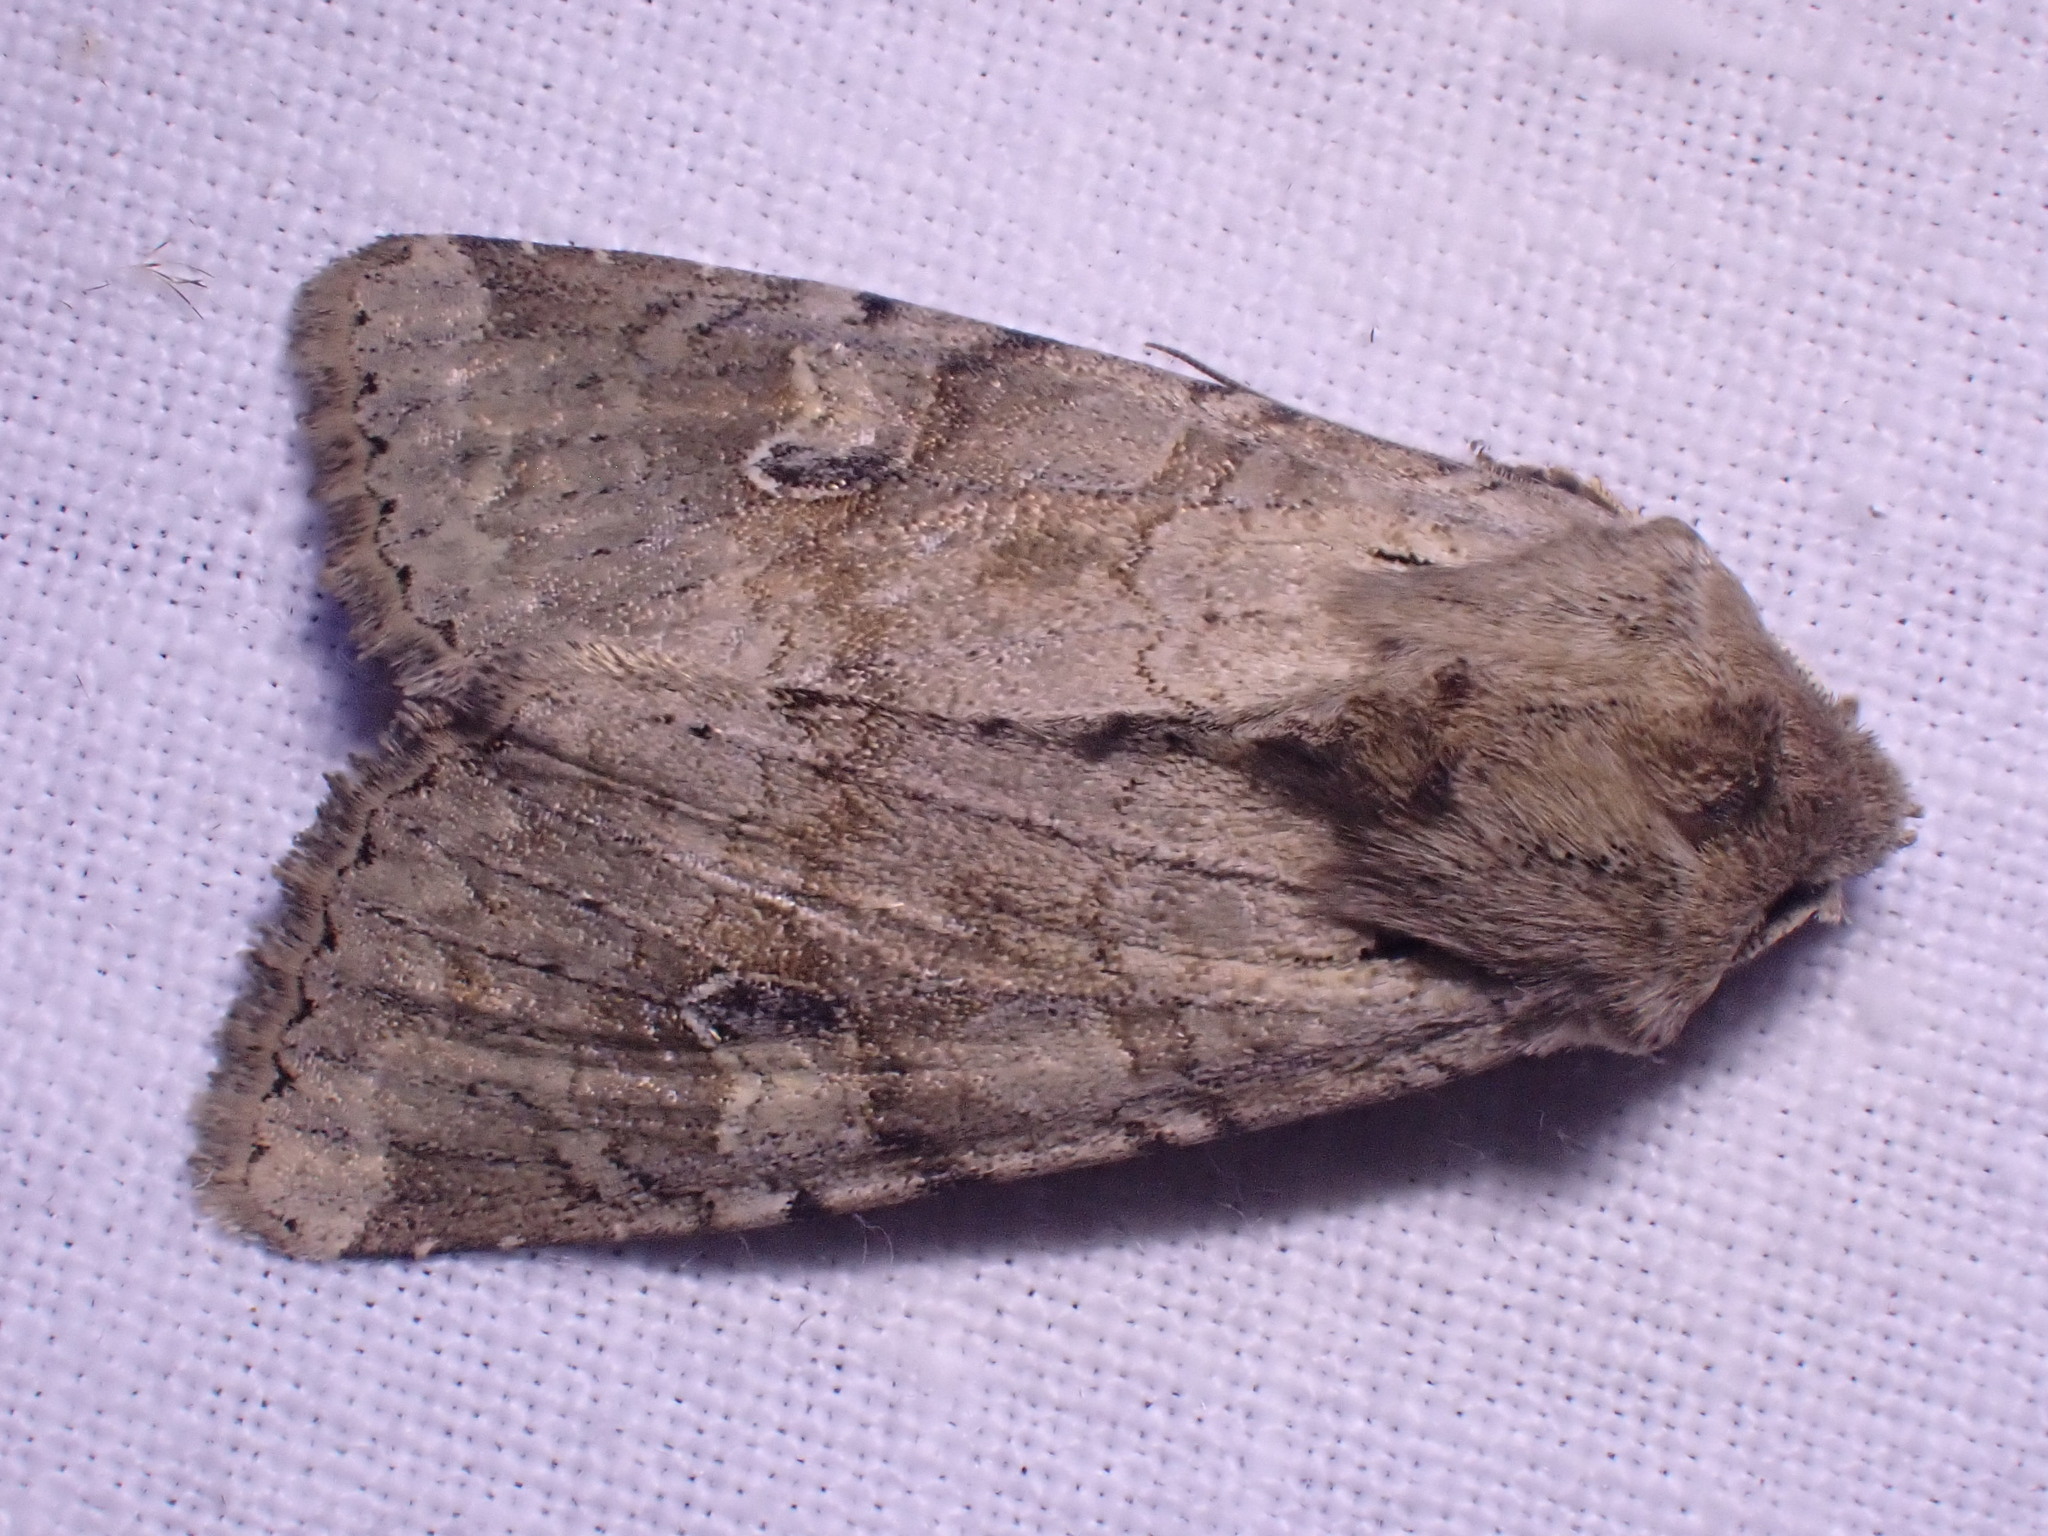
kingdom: Animalia
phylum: Arthropoda
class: Insecta
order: Lepidoptera
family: Noctuidae
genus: Apamea
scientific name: Apamea sordens
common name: Rustic shoulder-knot
